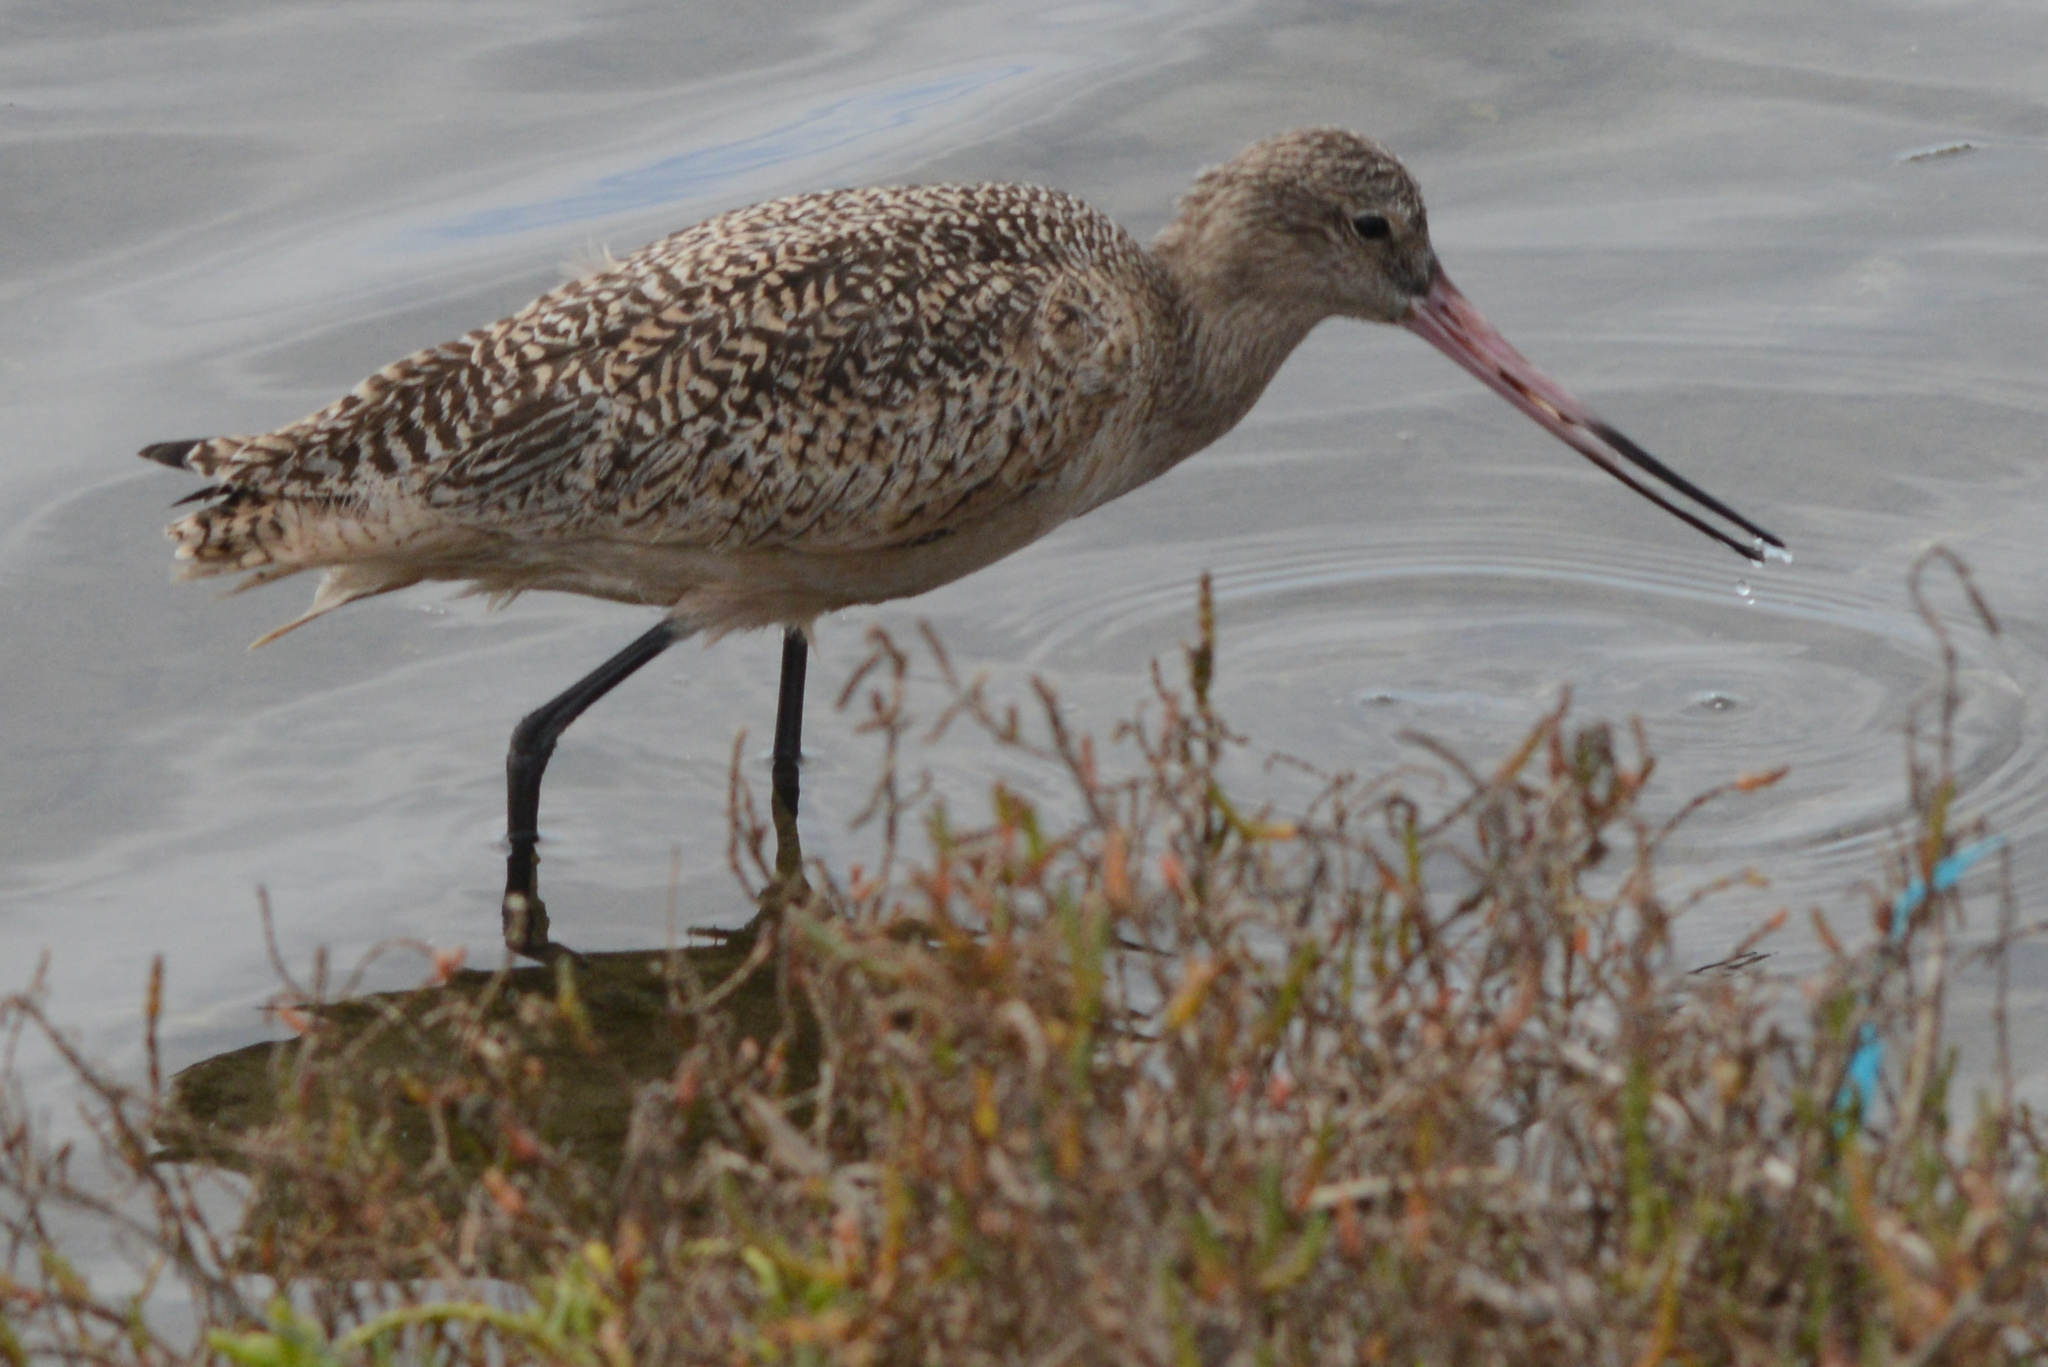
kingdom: Animalia
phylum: Chordata
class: Aves
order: Charadriiformes
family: Scolopacidae
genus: Limosa
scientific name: Limosa fedoa
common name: Marbled godwit
